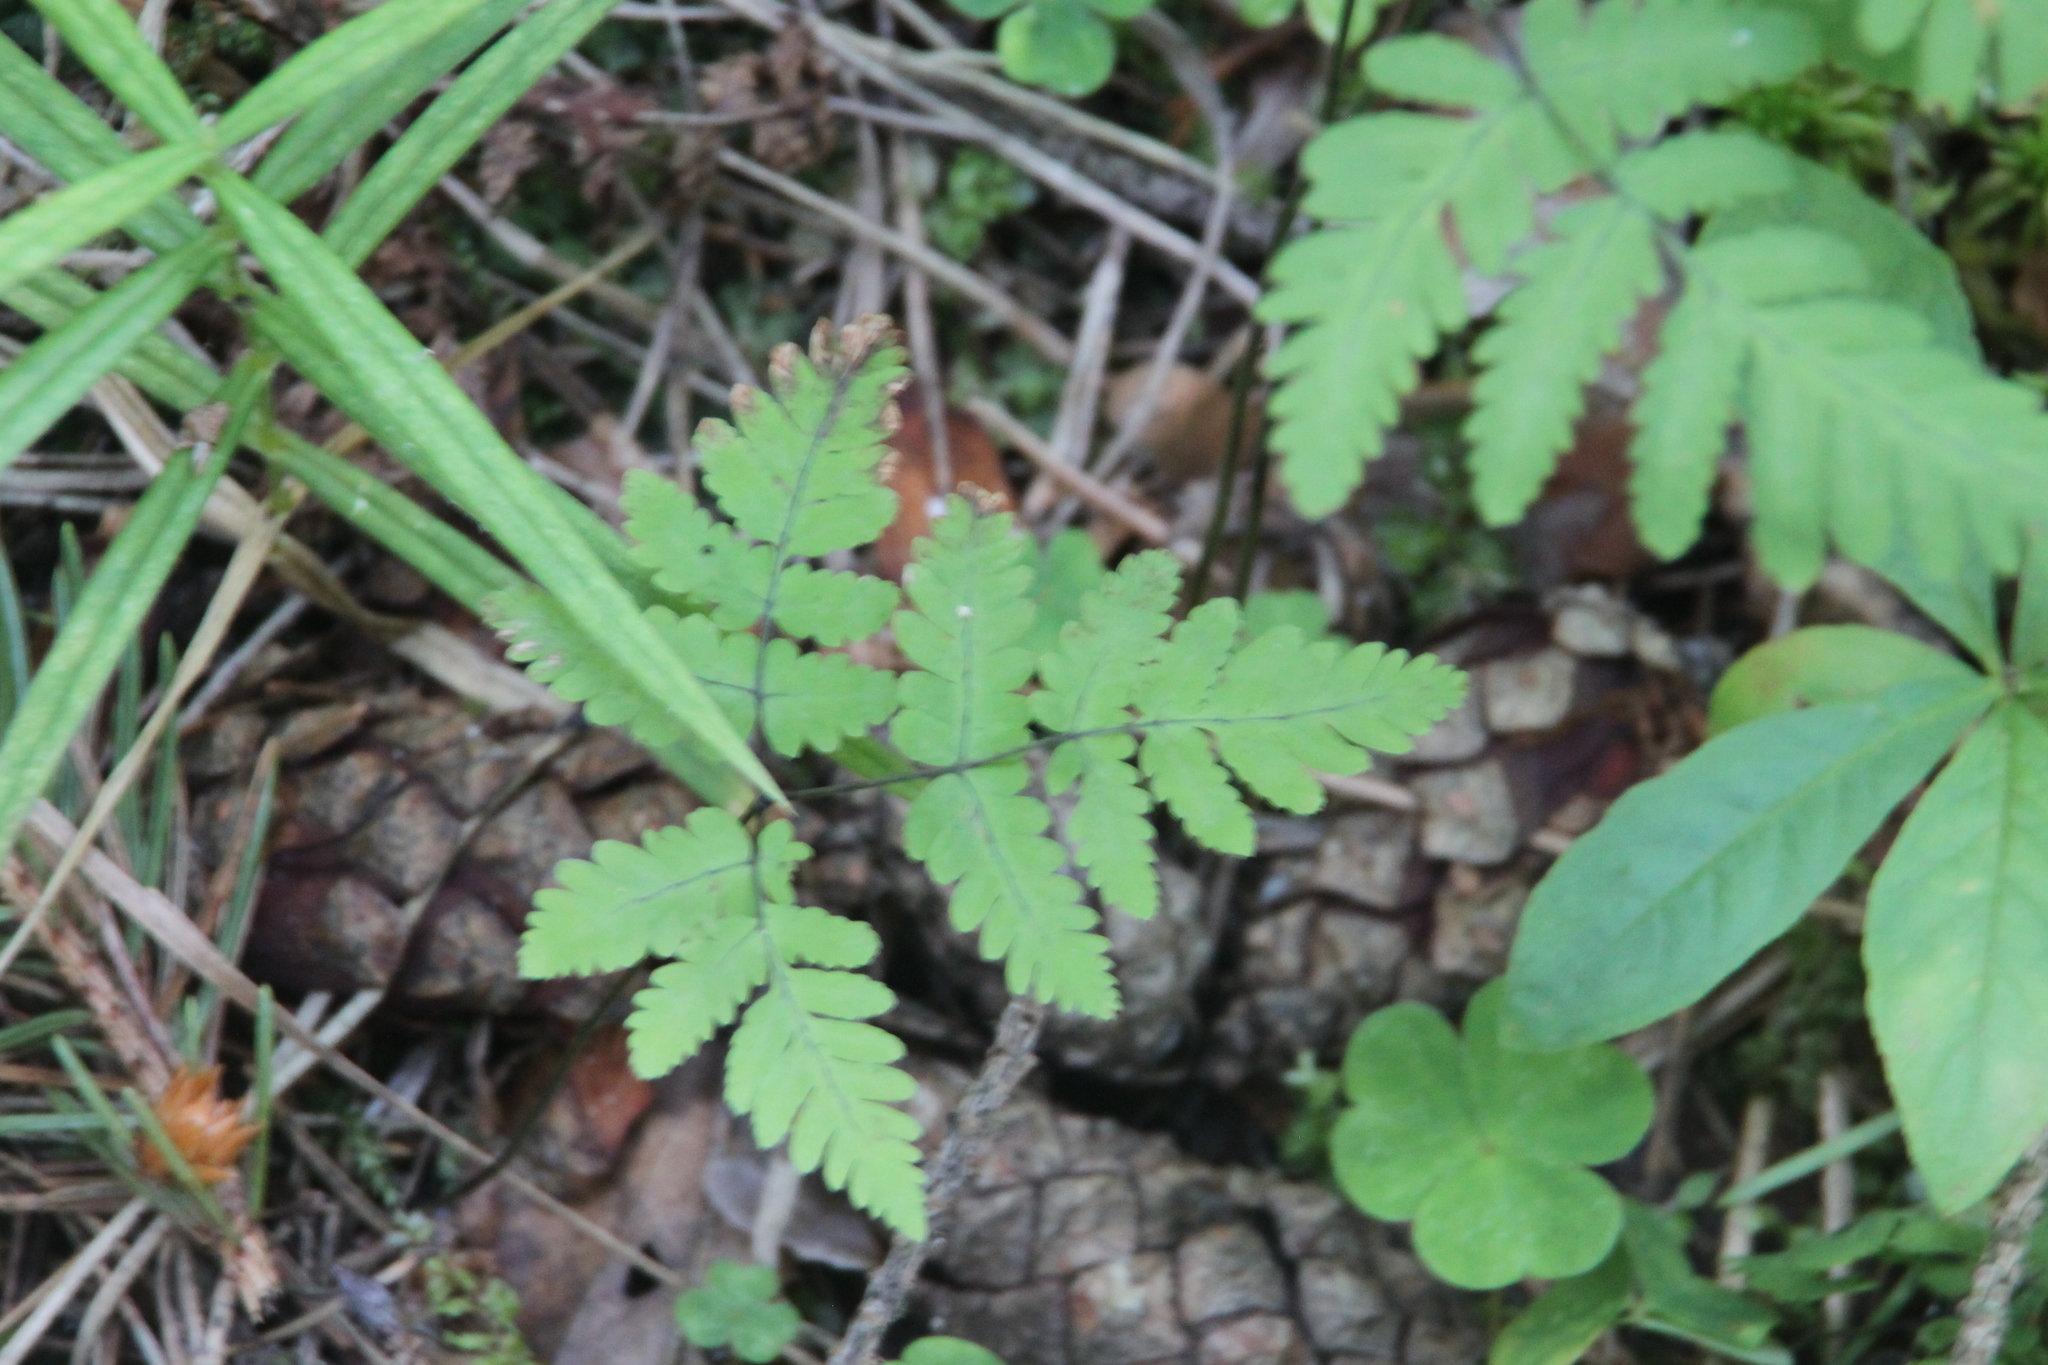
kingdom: Plantae
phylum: Tracheophyta
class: Polypodiopsida
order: Polypodiales
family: Cystopteridaceae
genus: Gymnocarpium
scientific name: Gymnocarpium dryopteris
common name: Oak fern
